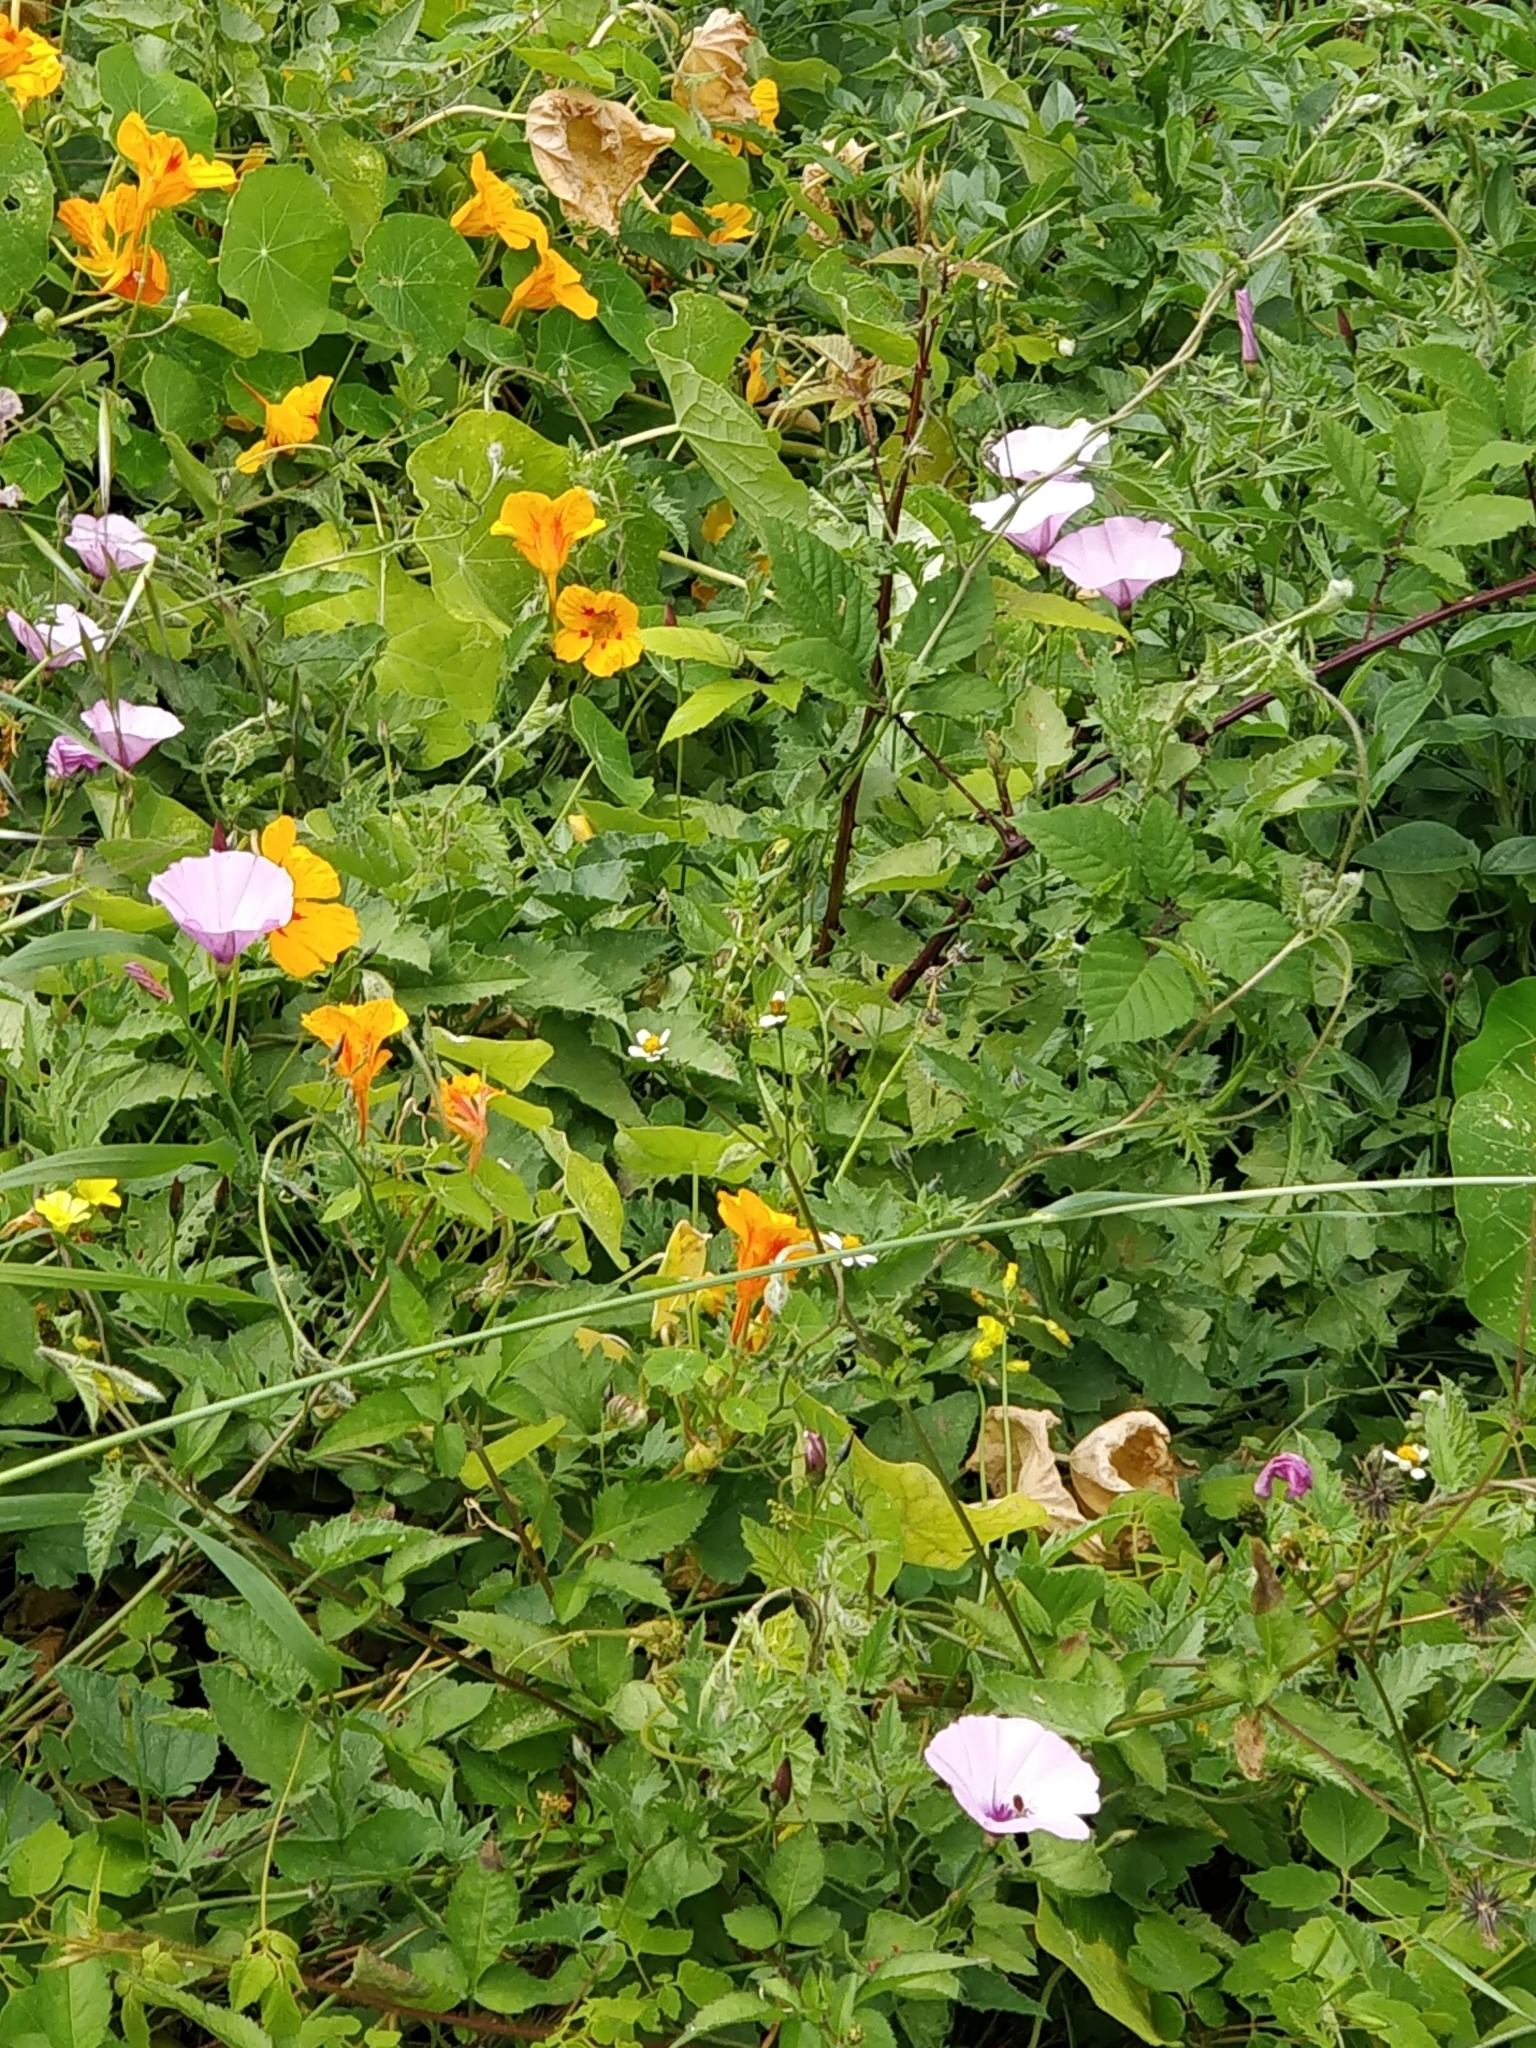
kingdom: Plantae
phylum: Tracheophyta
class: Magnoliopsida
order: Solanales
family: Convolvulaceae
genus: Convolvulus
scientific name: Convolvulus althaeoides
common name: Mallow bindweed
